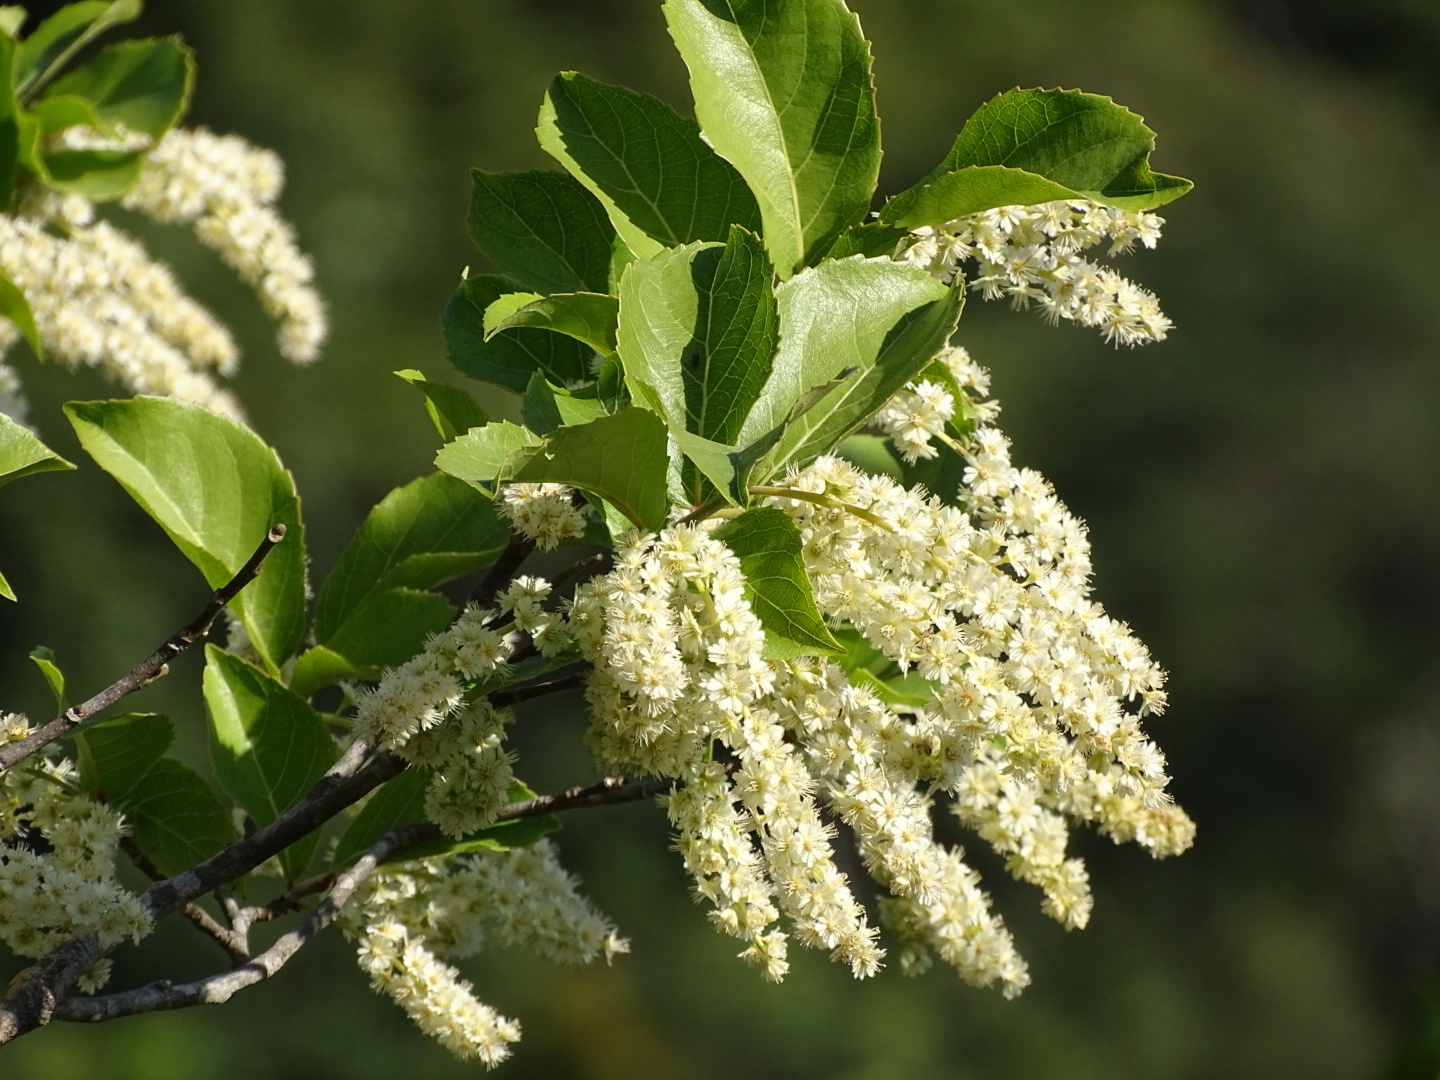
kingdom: Plantae
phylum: Tracheophyta
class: Magnoliopsida
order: Malpighiales
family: Salicaceae
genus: Homalium
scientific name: Homalium cochinchinensis
